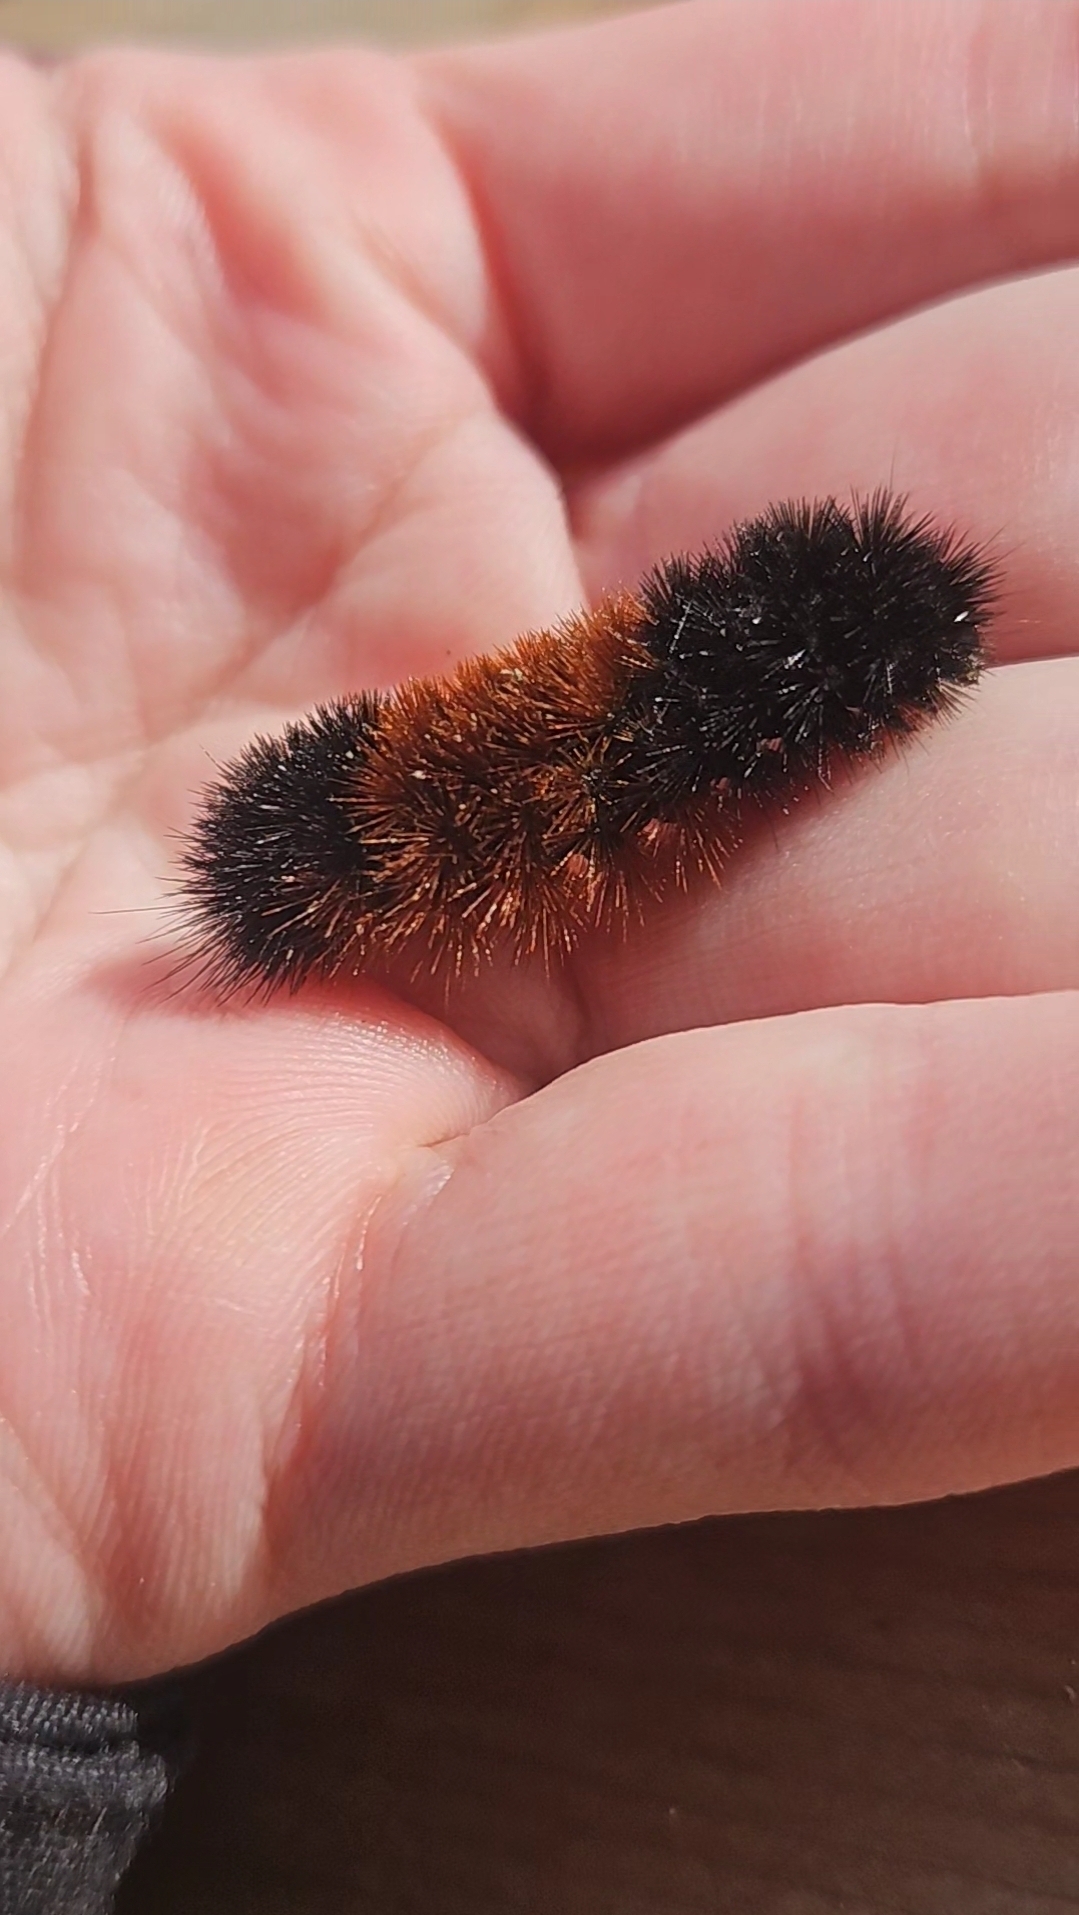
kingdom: Animalia
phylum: Arthropoda
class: Insecta
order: Lepidoptera
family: Erebidae
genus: Pyrrharctia
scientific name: Pyrrharctia isabella
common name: Isabella tiger moth
